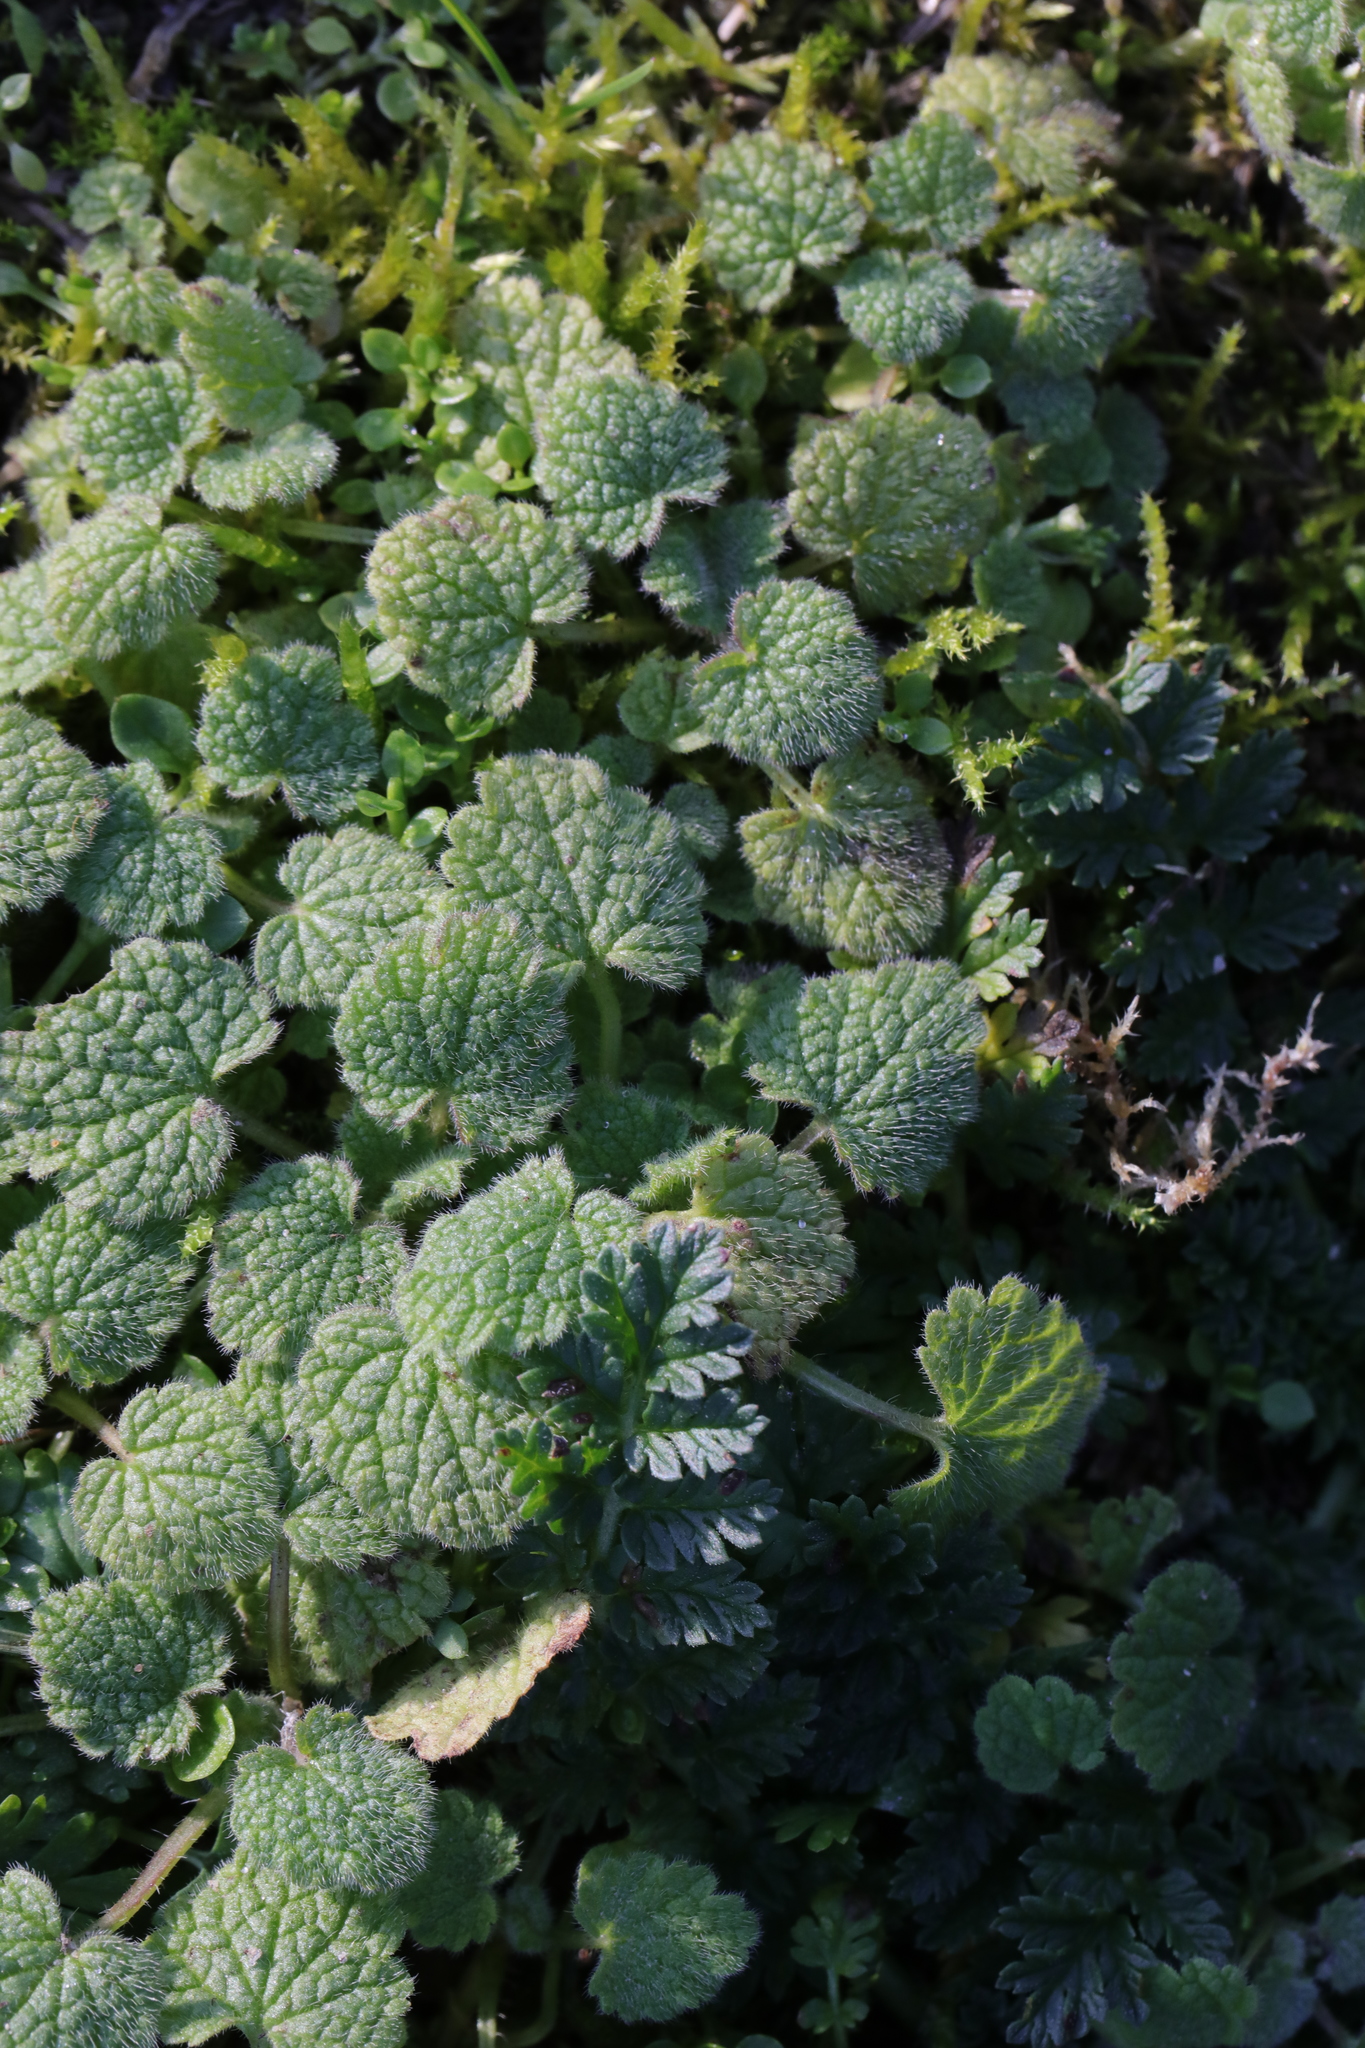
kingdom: Plantae
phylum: Tracheophyta
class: Magnoliopsida
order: Lamiales
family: Lamiaceae
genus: Lamium
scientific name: Lamium purpureum
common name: Red dead-nettle
